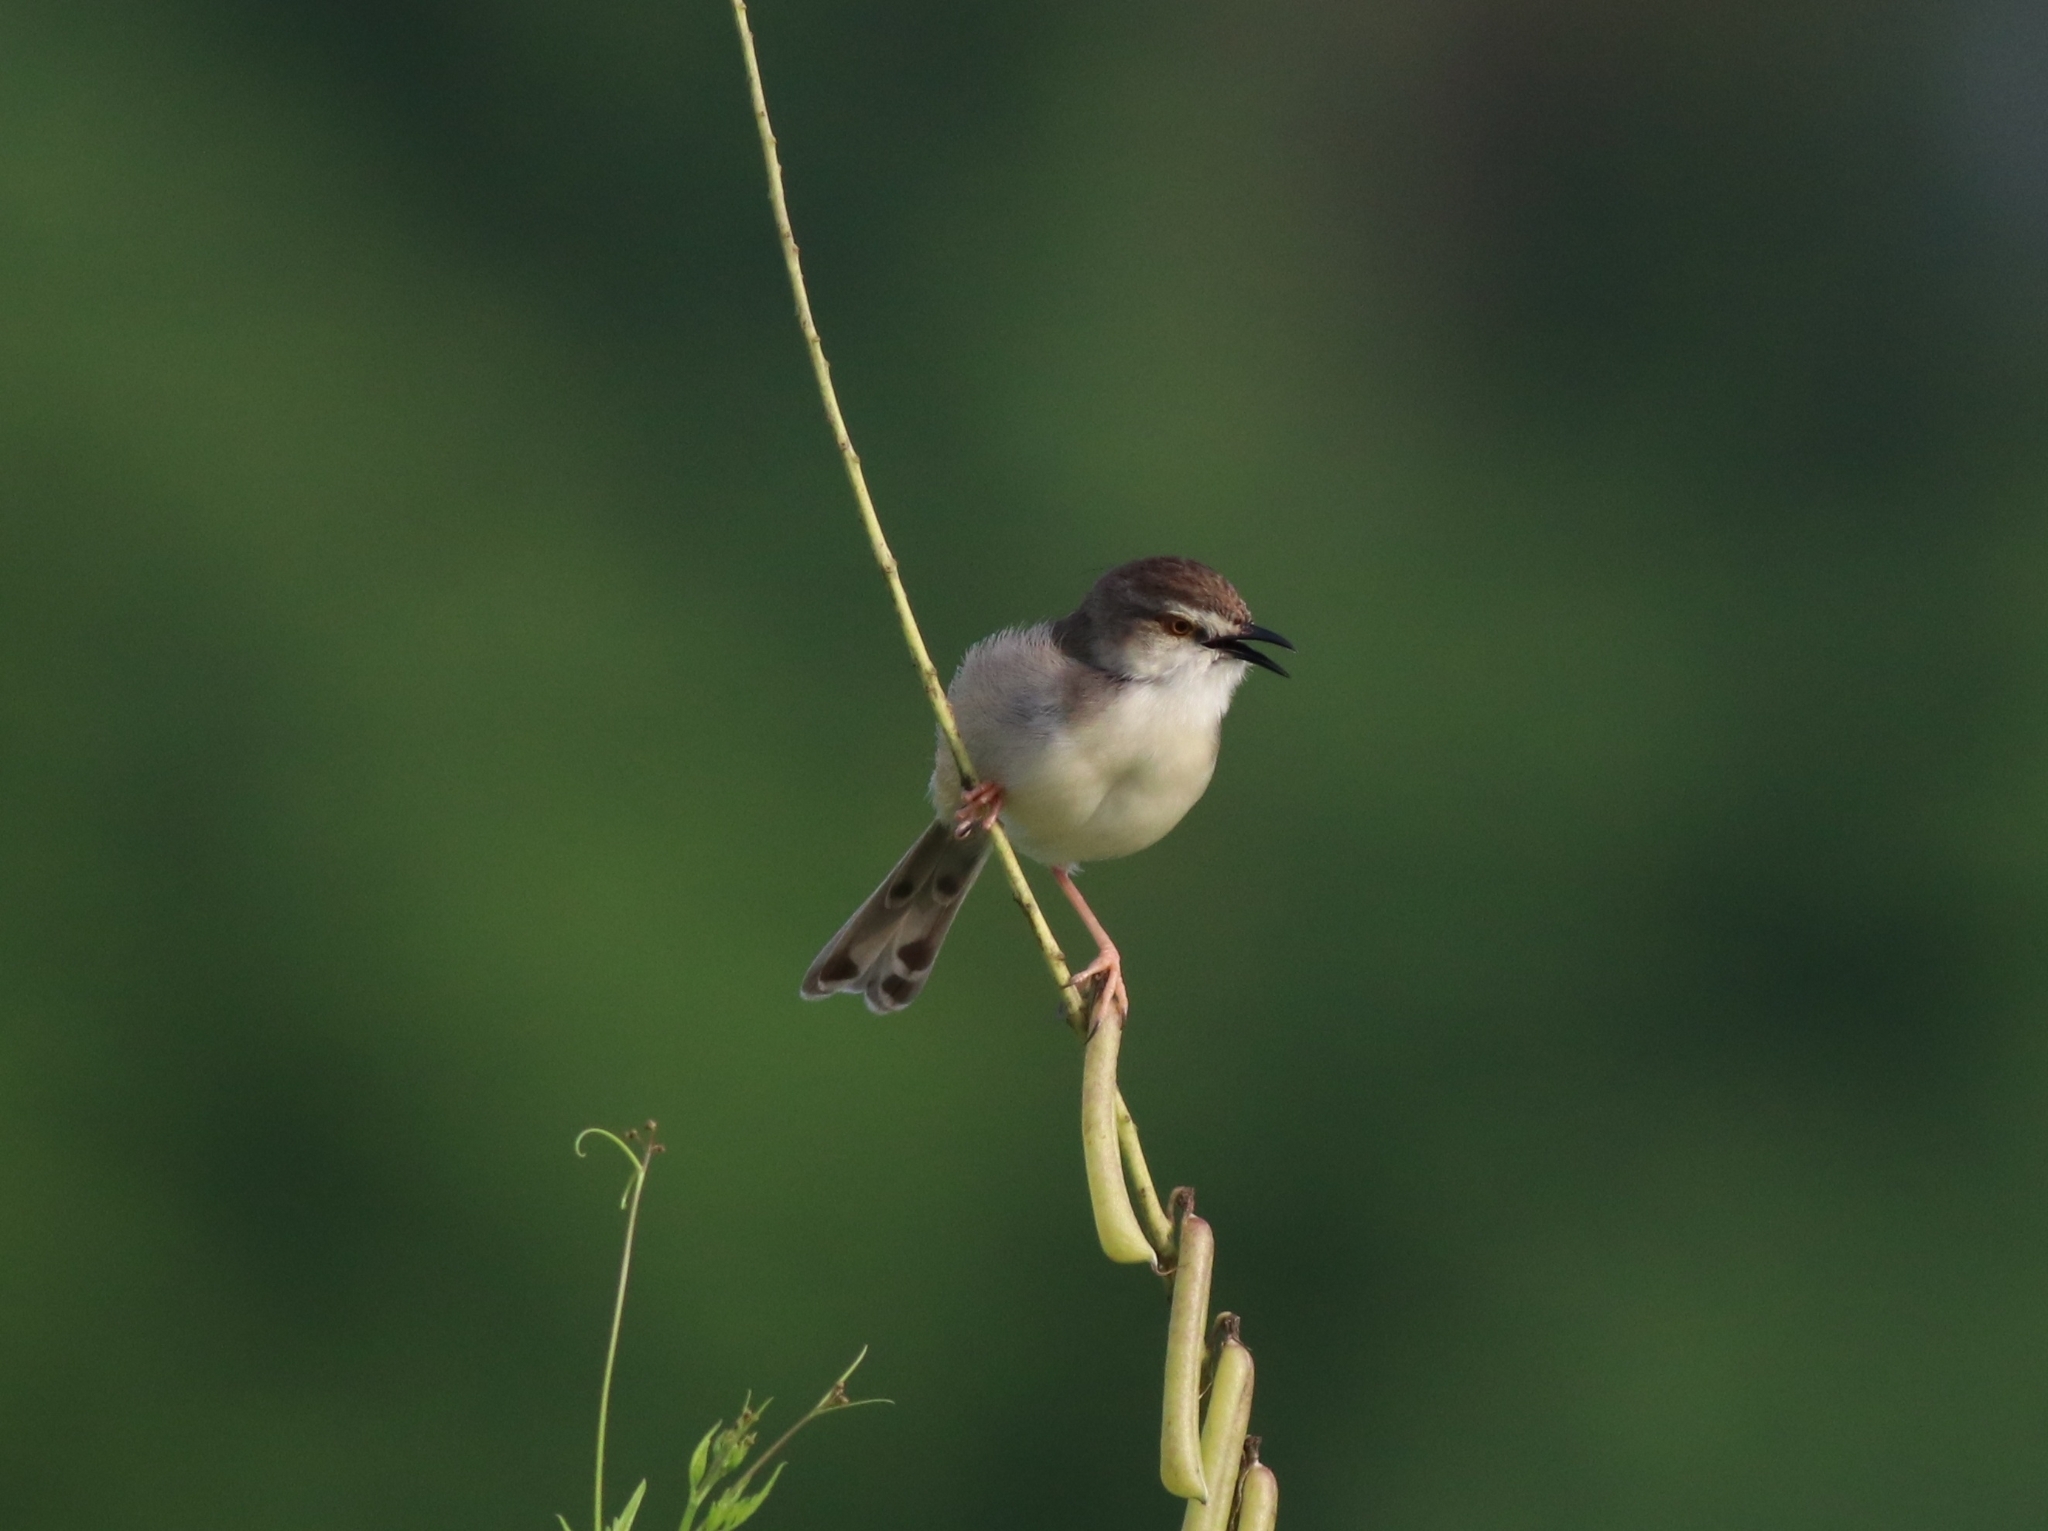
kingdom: Animalia
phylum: Chordata
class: Aves
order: Passeriformes
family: Cisticolidae
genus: Prinia
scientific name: Prinia inornata
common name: Plain prinia
